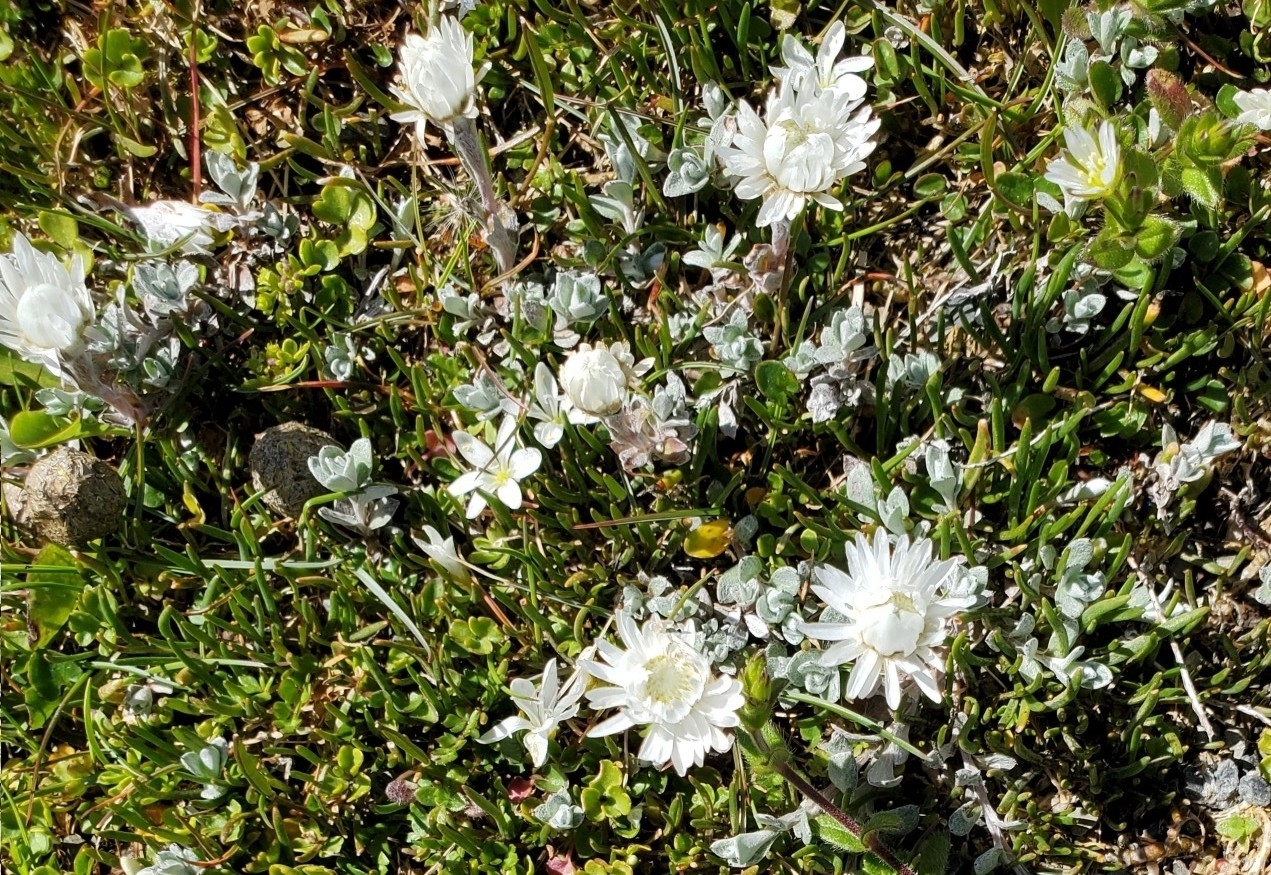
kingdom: Plantae
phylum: Tracheophyta
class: Magnoliopsida
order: Asterales
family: Asteraceae
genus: Anaphalioides
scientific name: Anaphalioides bellidioides
